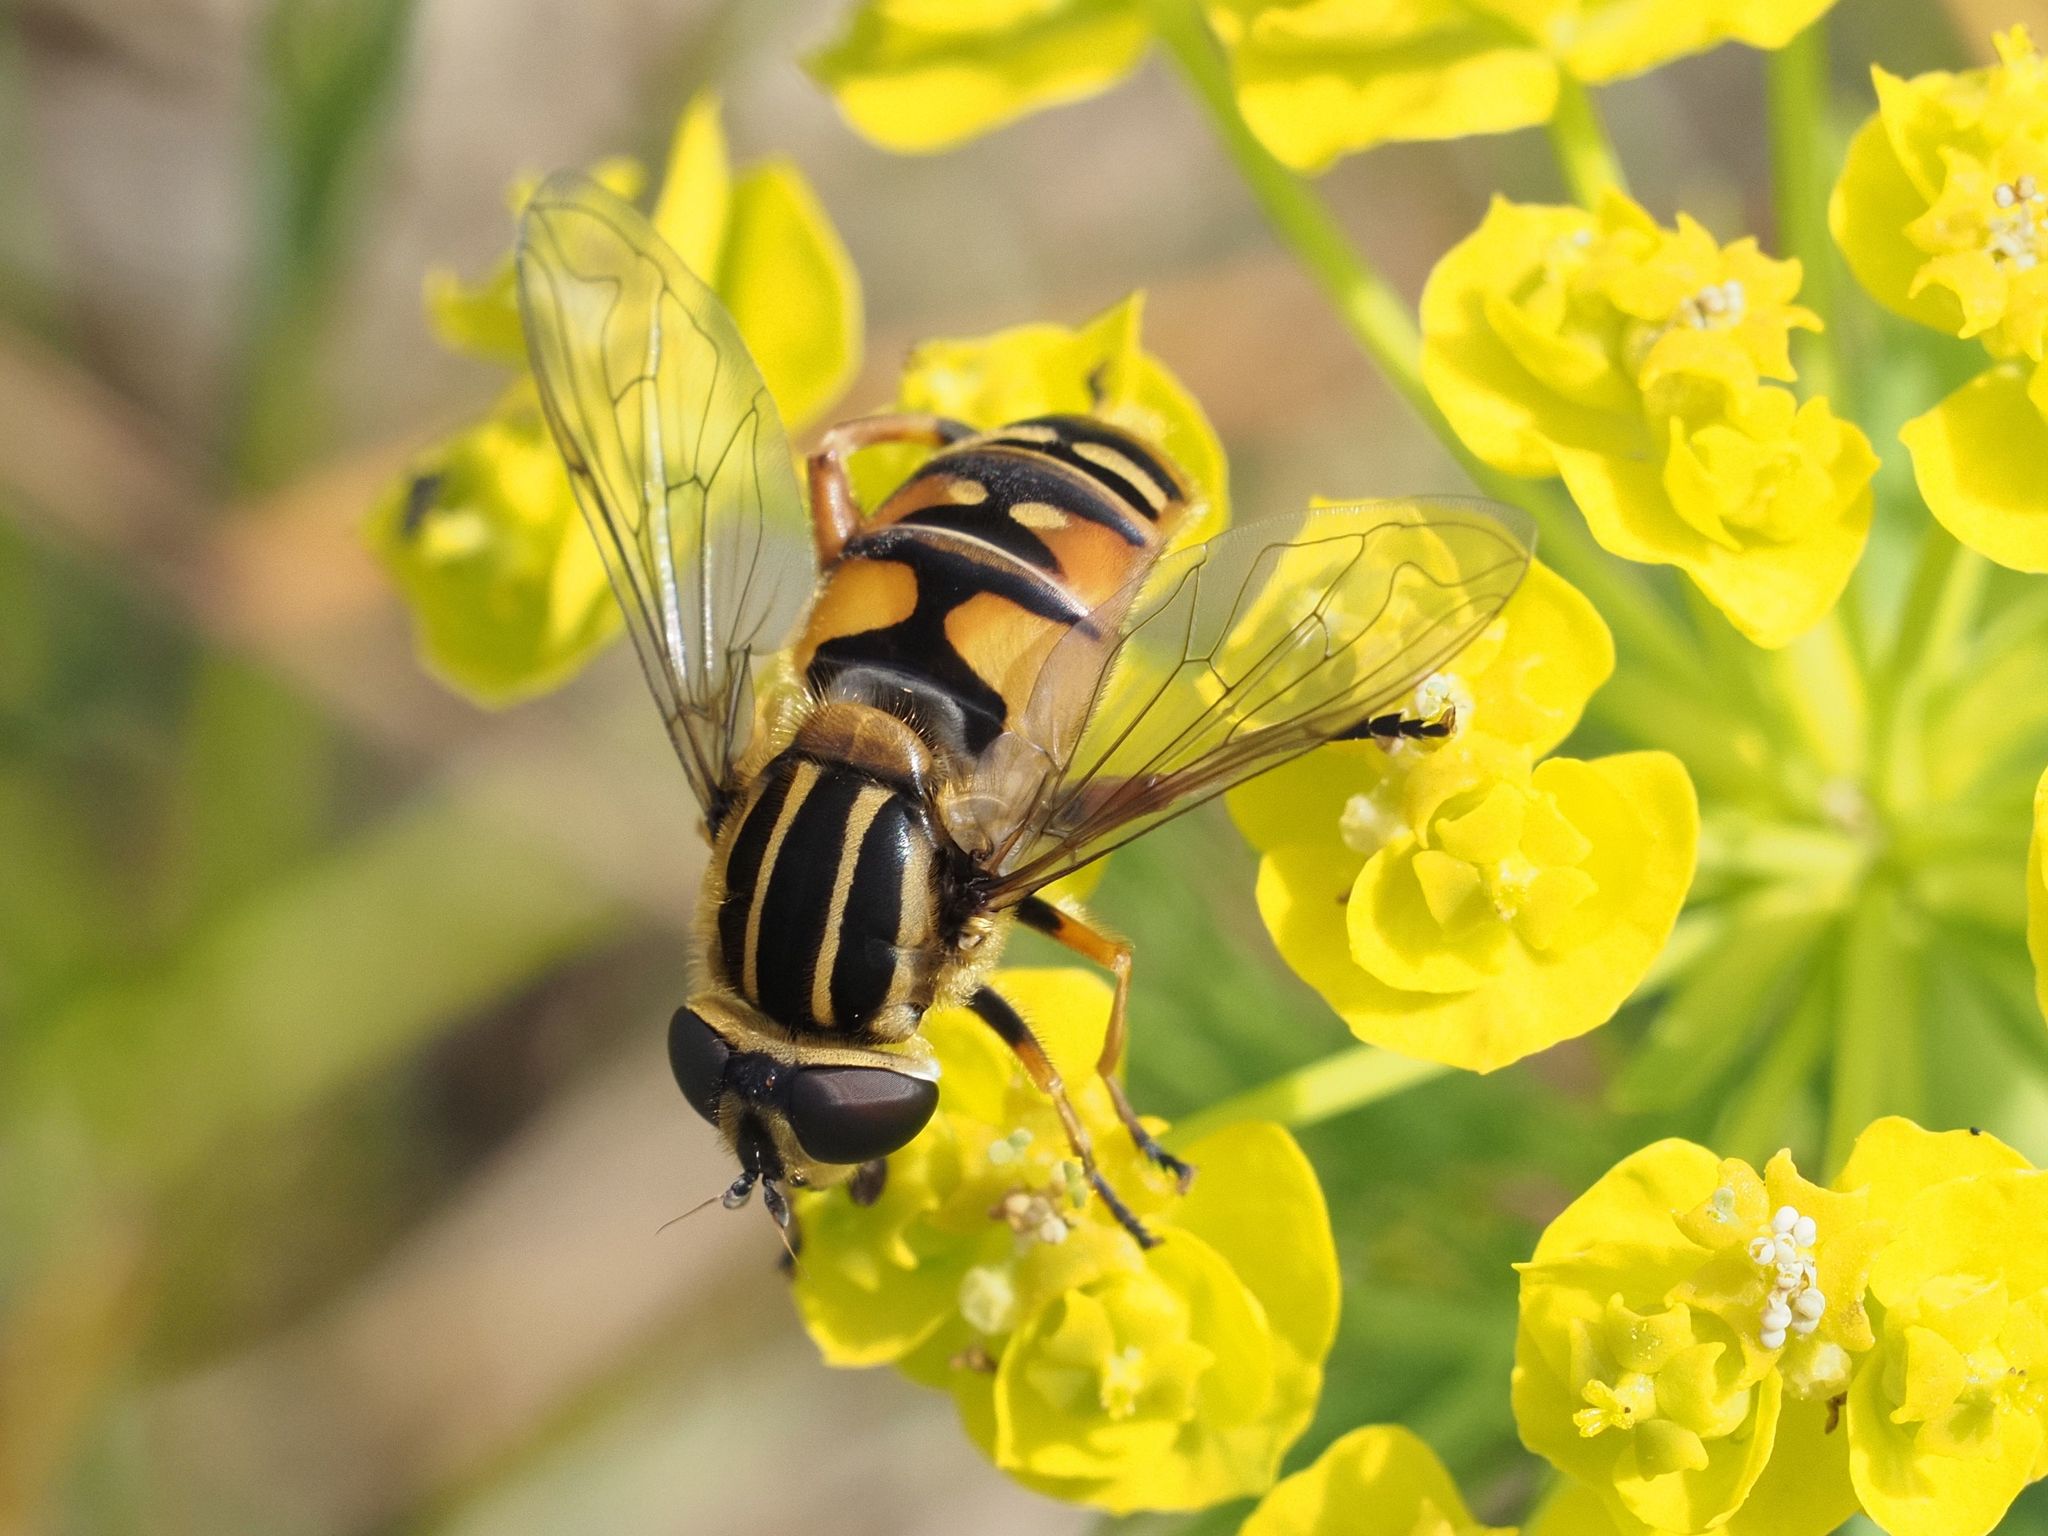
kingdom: Animalia
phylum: Arthropoda
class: Insecta
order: Diptera
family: Syrphidae
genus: Helophilus
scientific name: Helophilus pendulus
